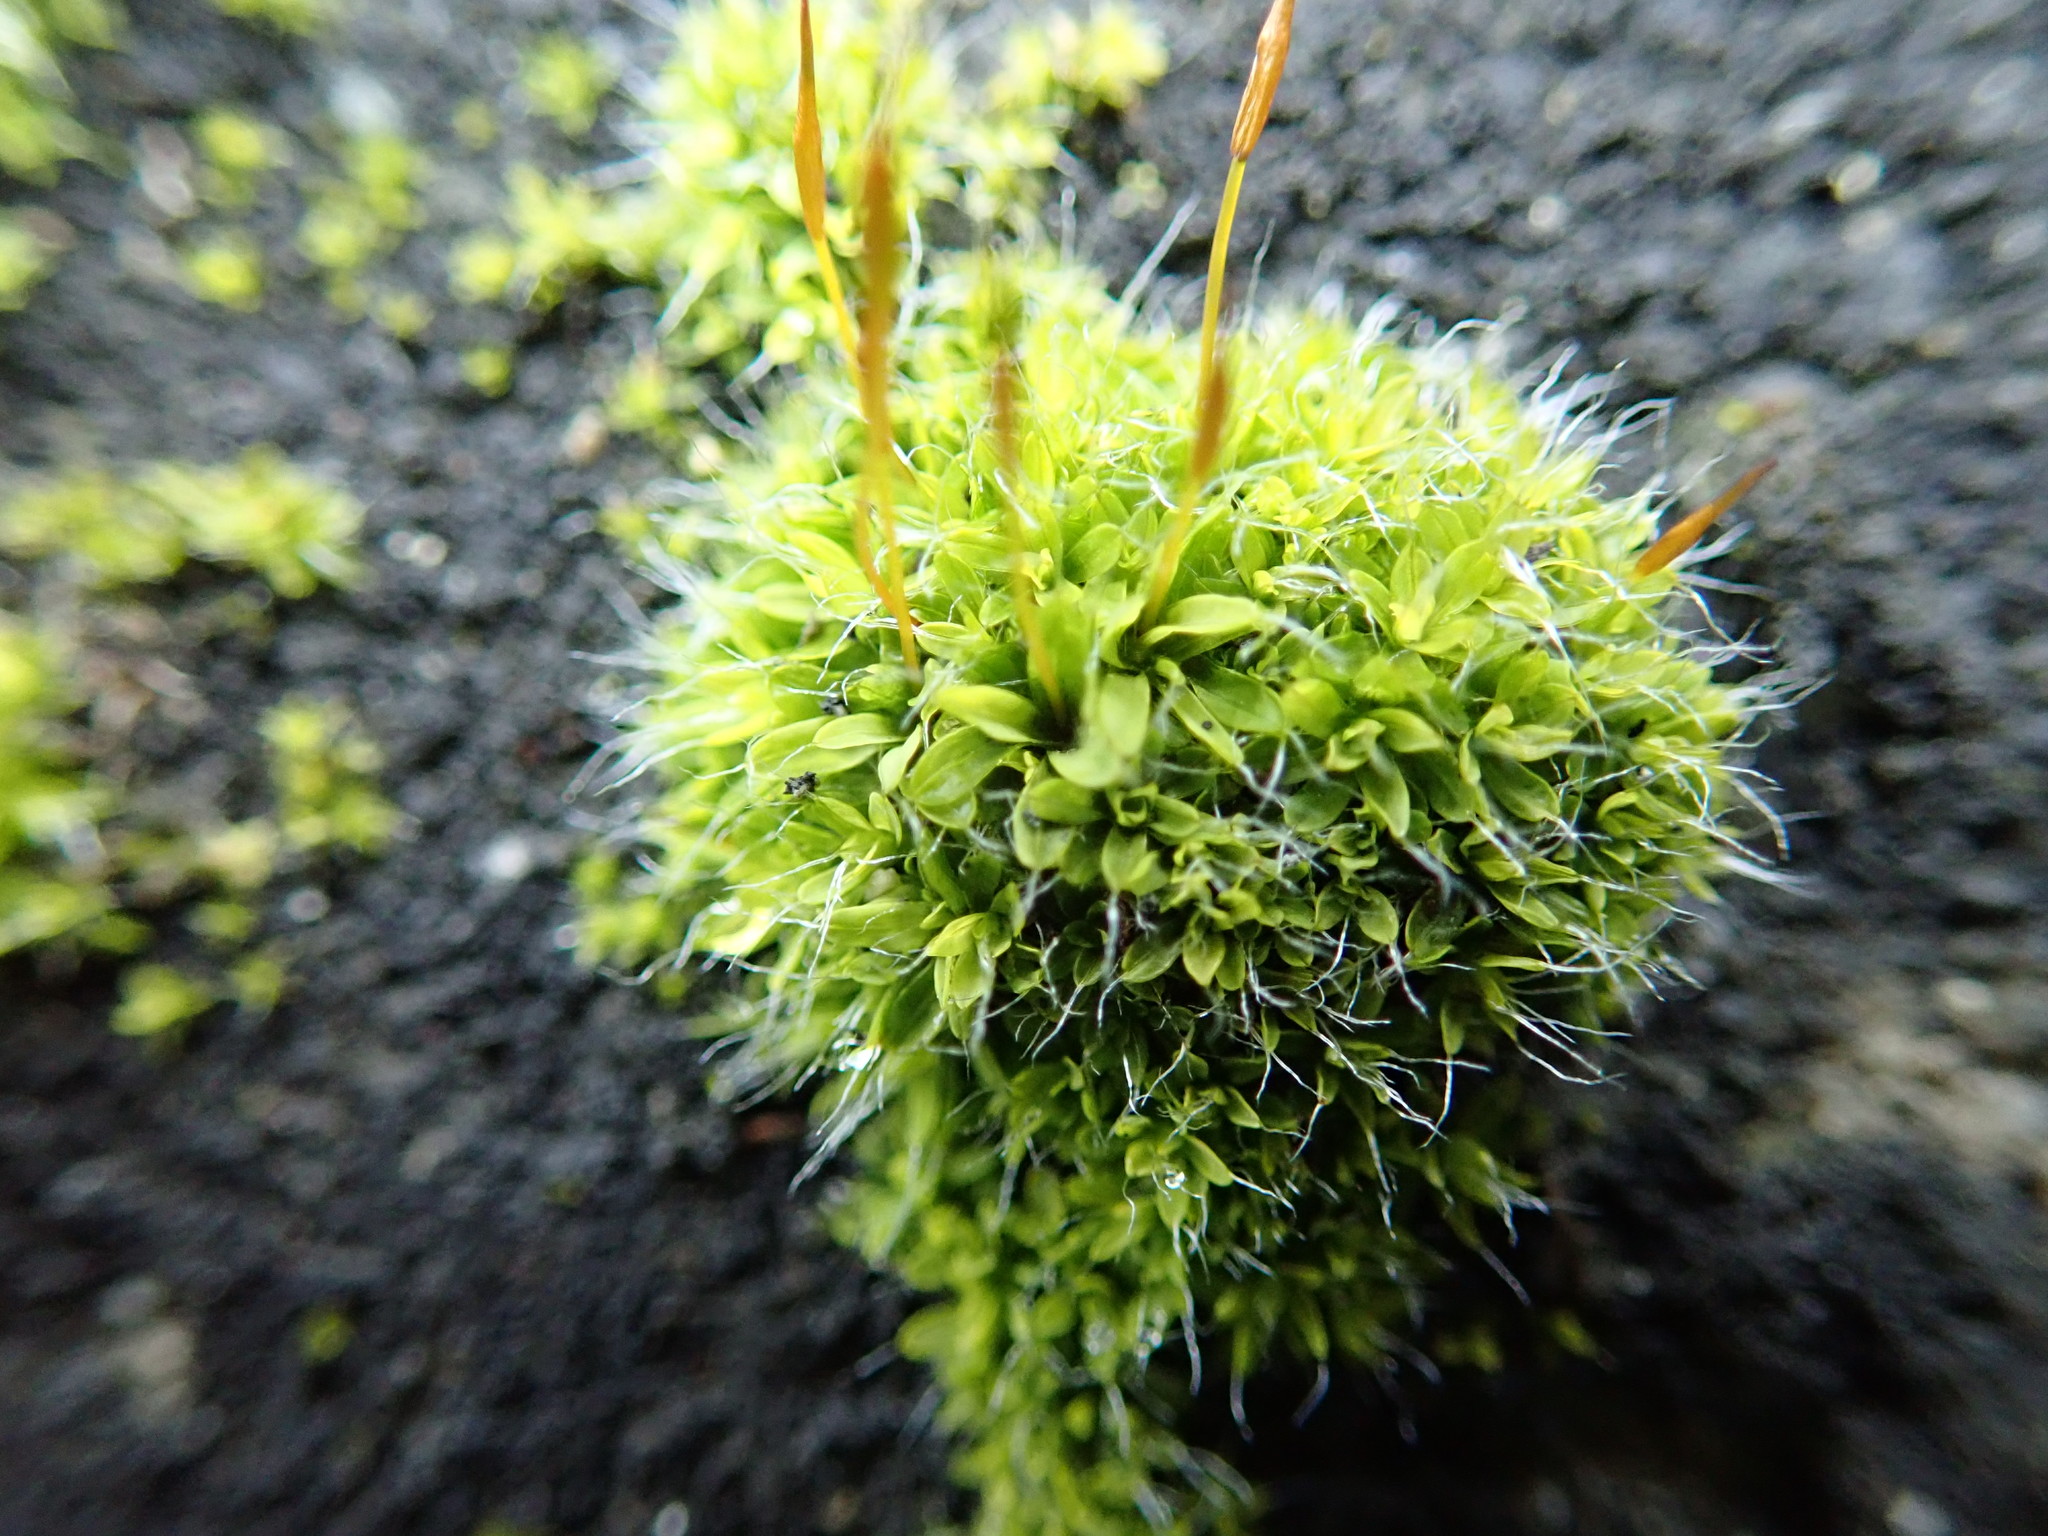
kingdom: Plantae
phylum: Bryophyta
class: Bryopsida
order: Pottiales
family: Pottiaceae
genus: Tortula
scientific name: Tortula muralis
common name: Wall screw-moss
